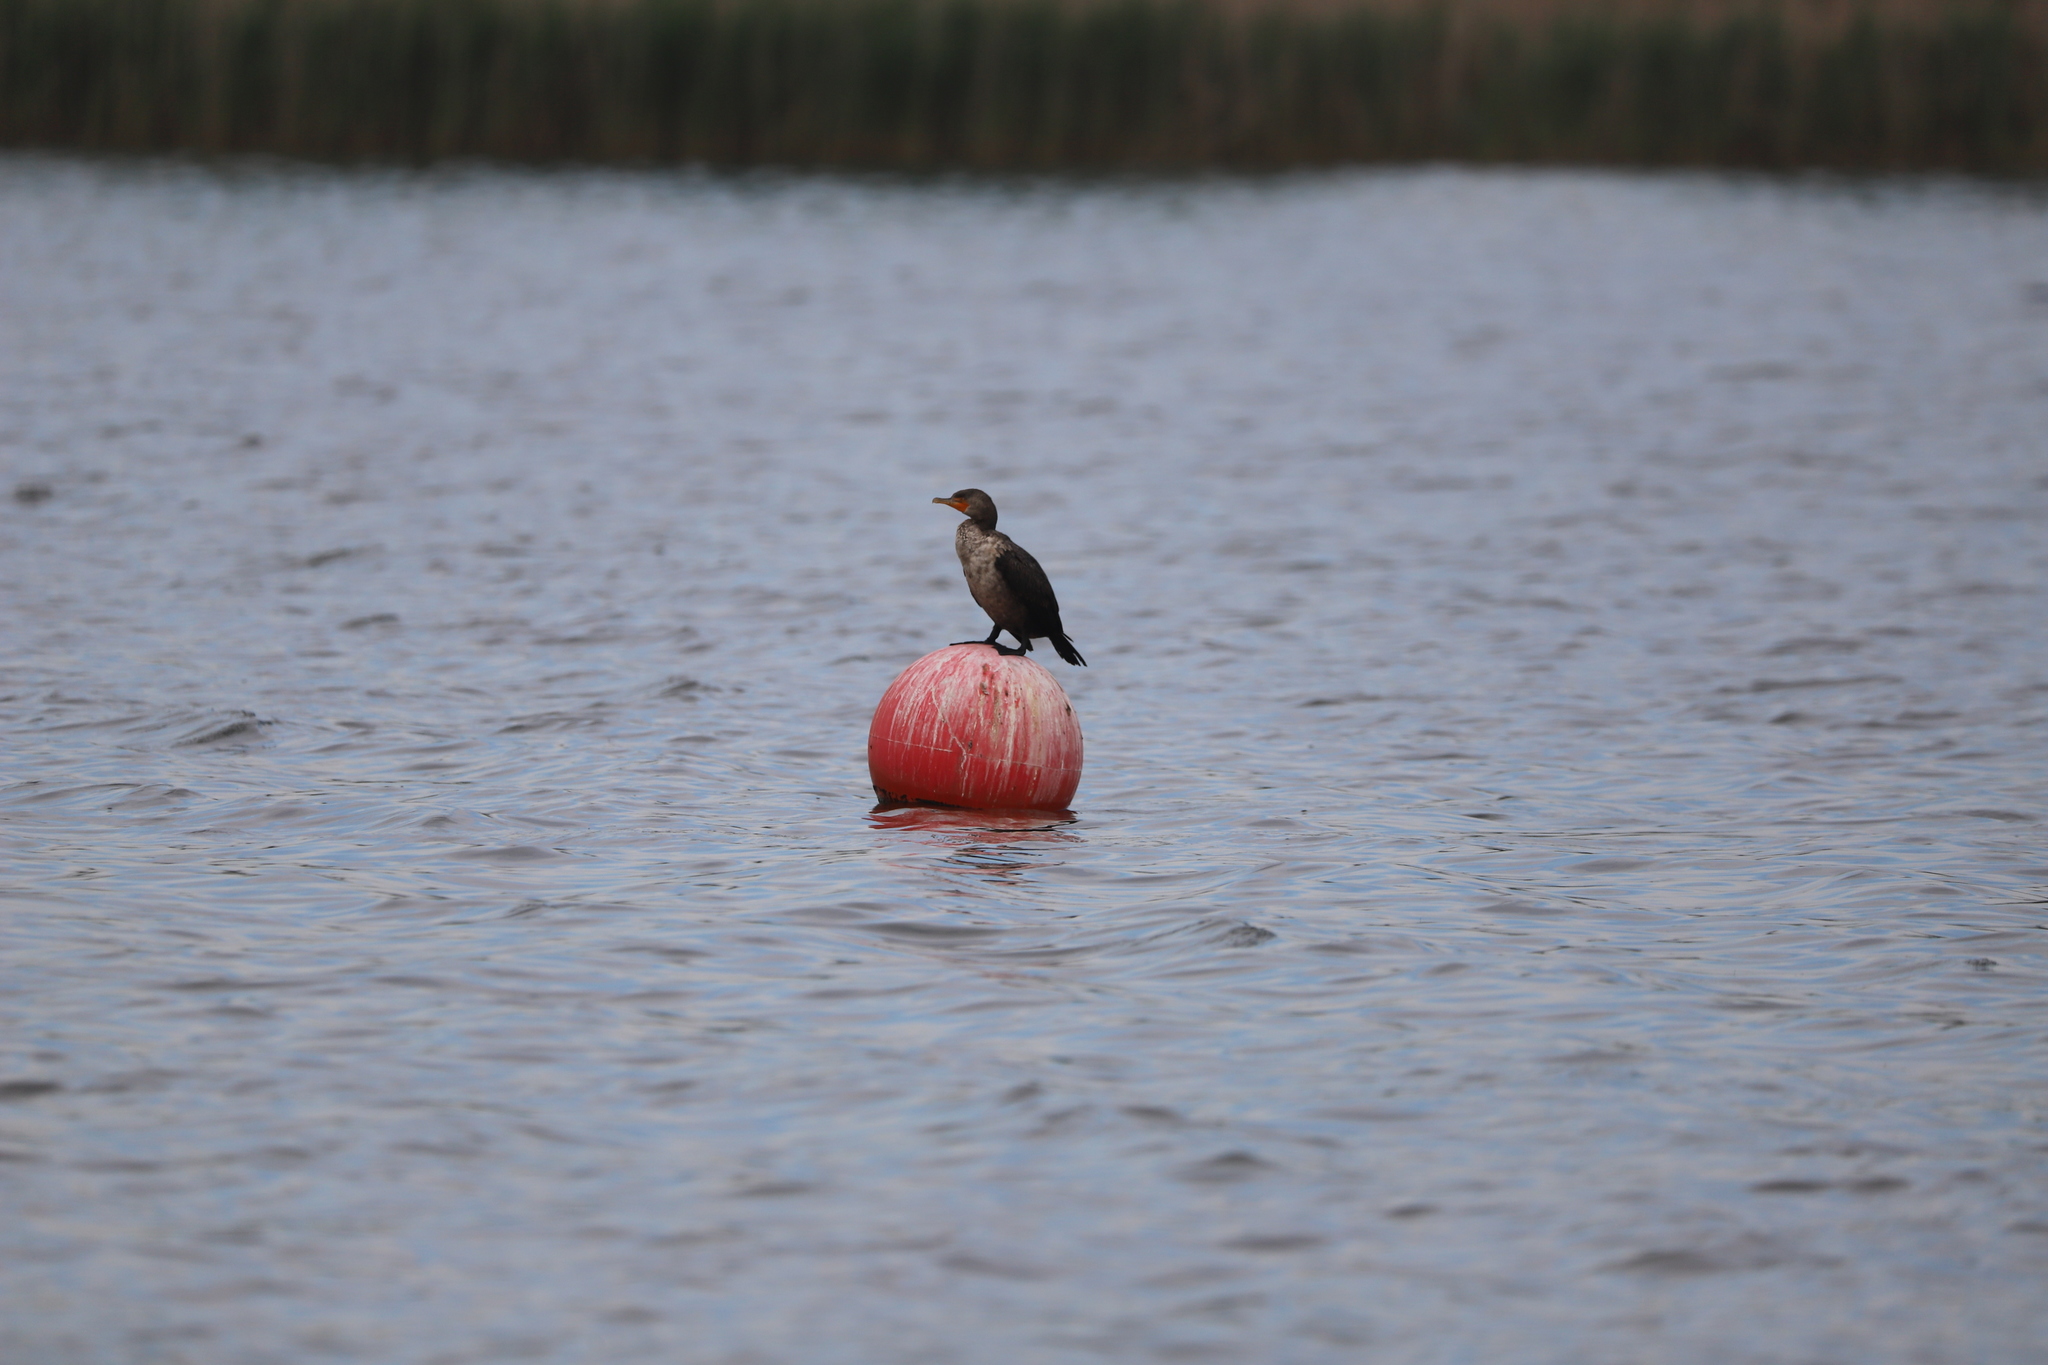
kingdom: Animalia
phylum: Chordata
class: Aves
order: Suliformes
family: Phalacrocoracidae
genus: Phalacrocorax
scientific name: Phalacrocorax auritus
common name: Double-crested cormorant
